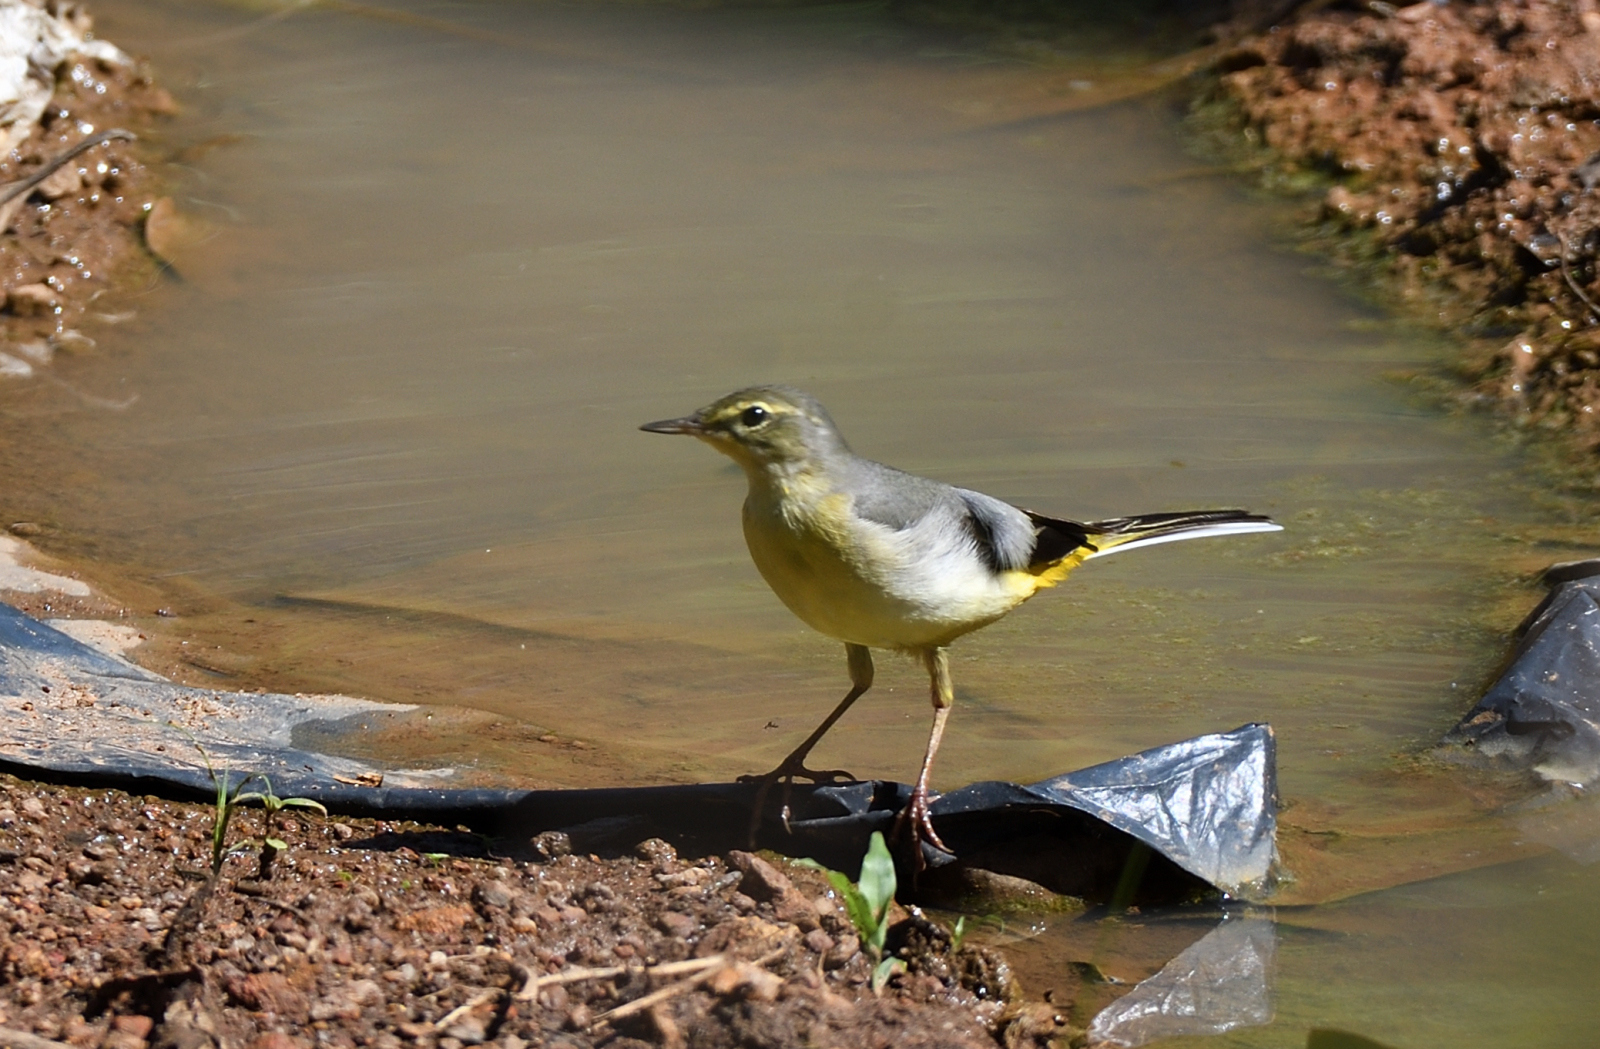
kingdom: Animalia
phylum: Chordata
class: Aves
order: Passeriformes
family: Motacillidae
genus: Motacilla
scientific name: Motacilla cinerea
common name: Grey wagtail
